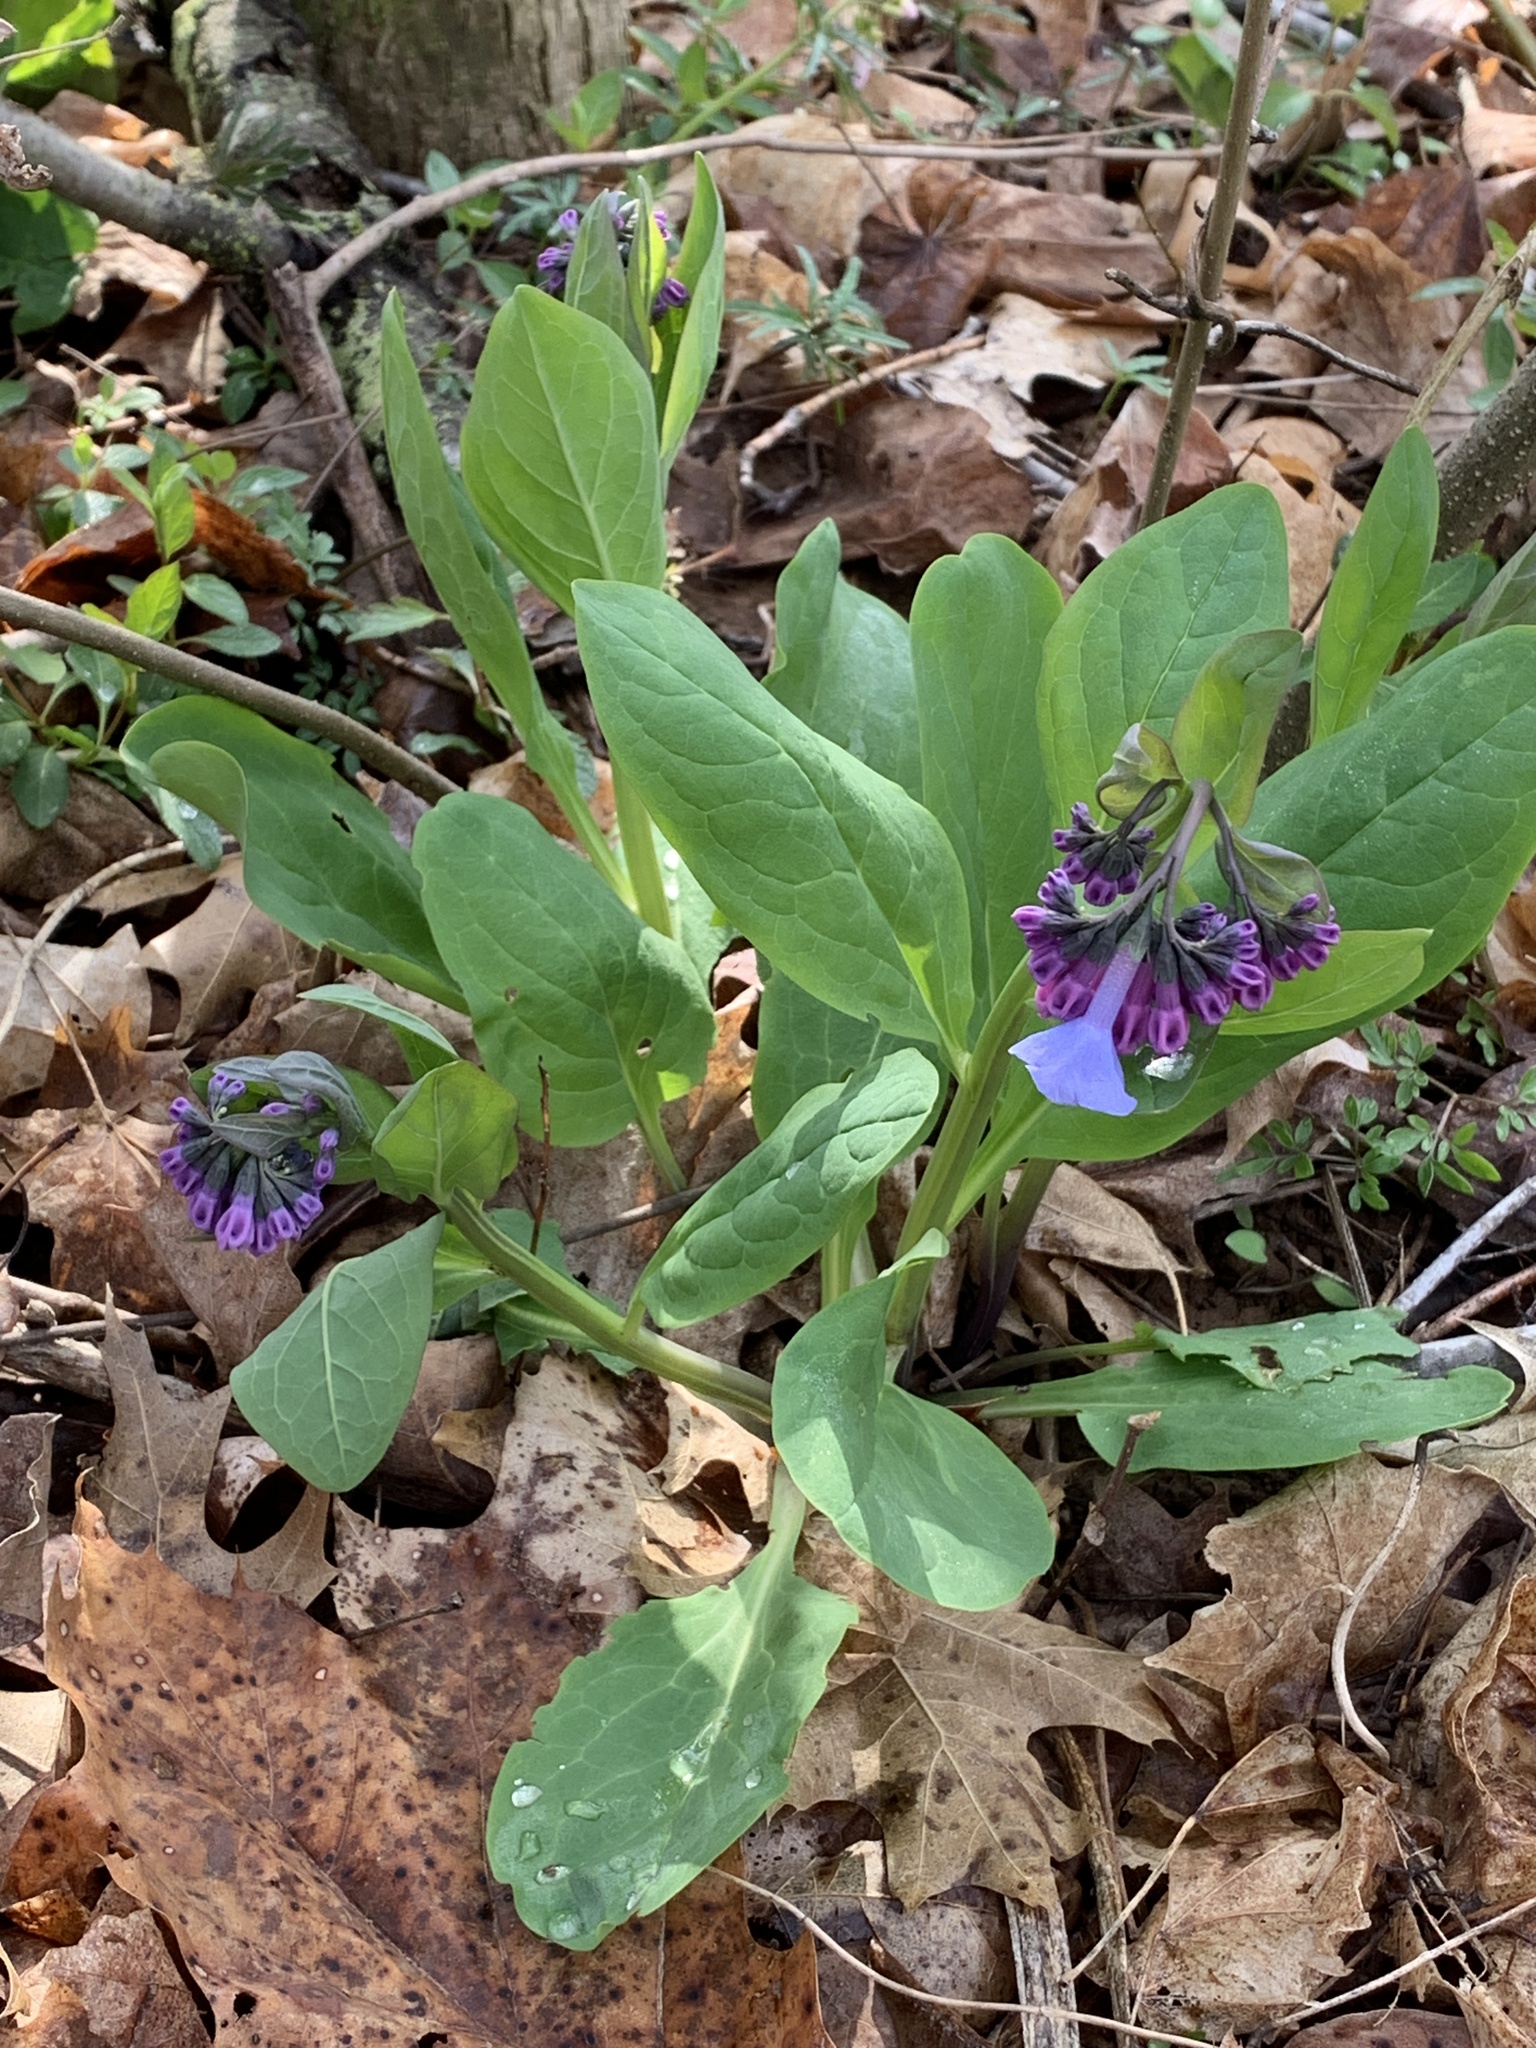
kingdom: Plantae
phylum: Tracheophyta
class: Magnoliopsida
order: Boraginales
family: Boraginaceae
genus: Mertensia
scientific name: Mertensia virginica
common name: Virginia bluebells
